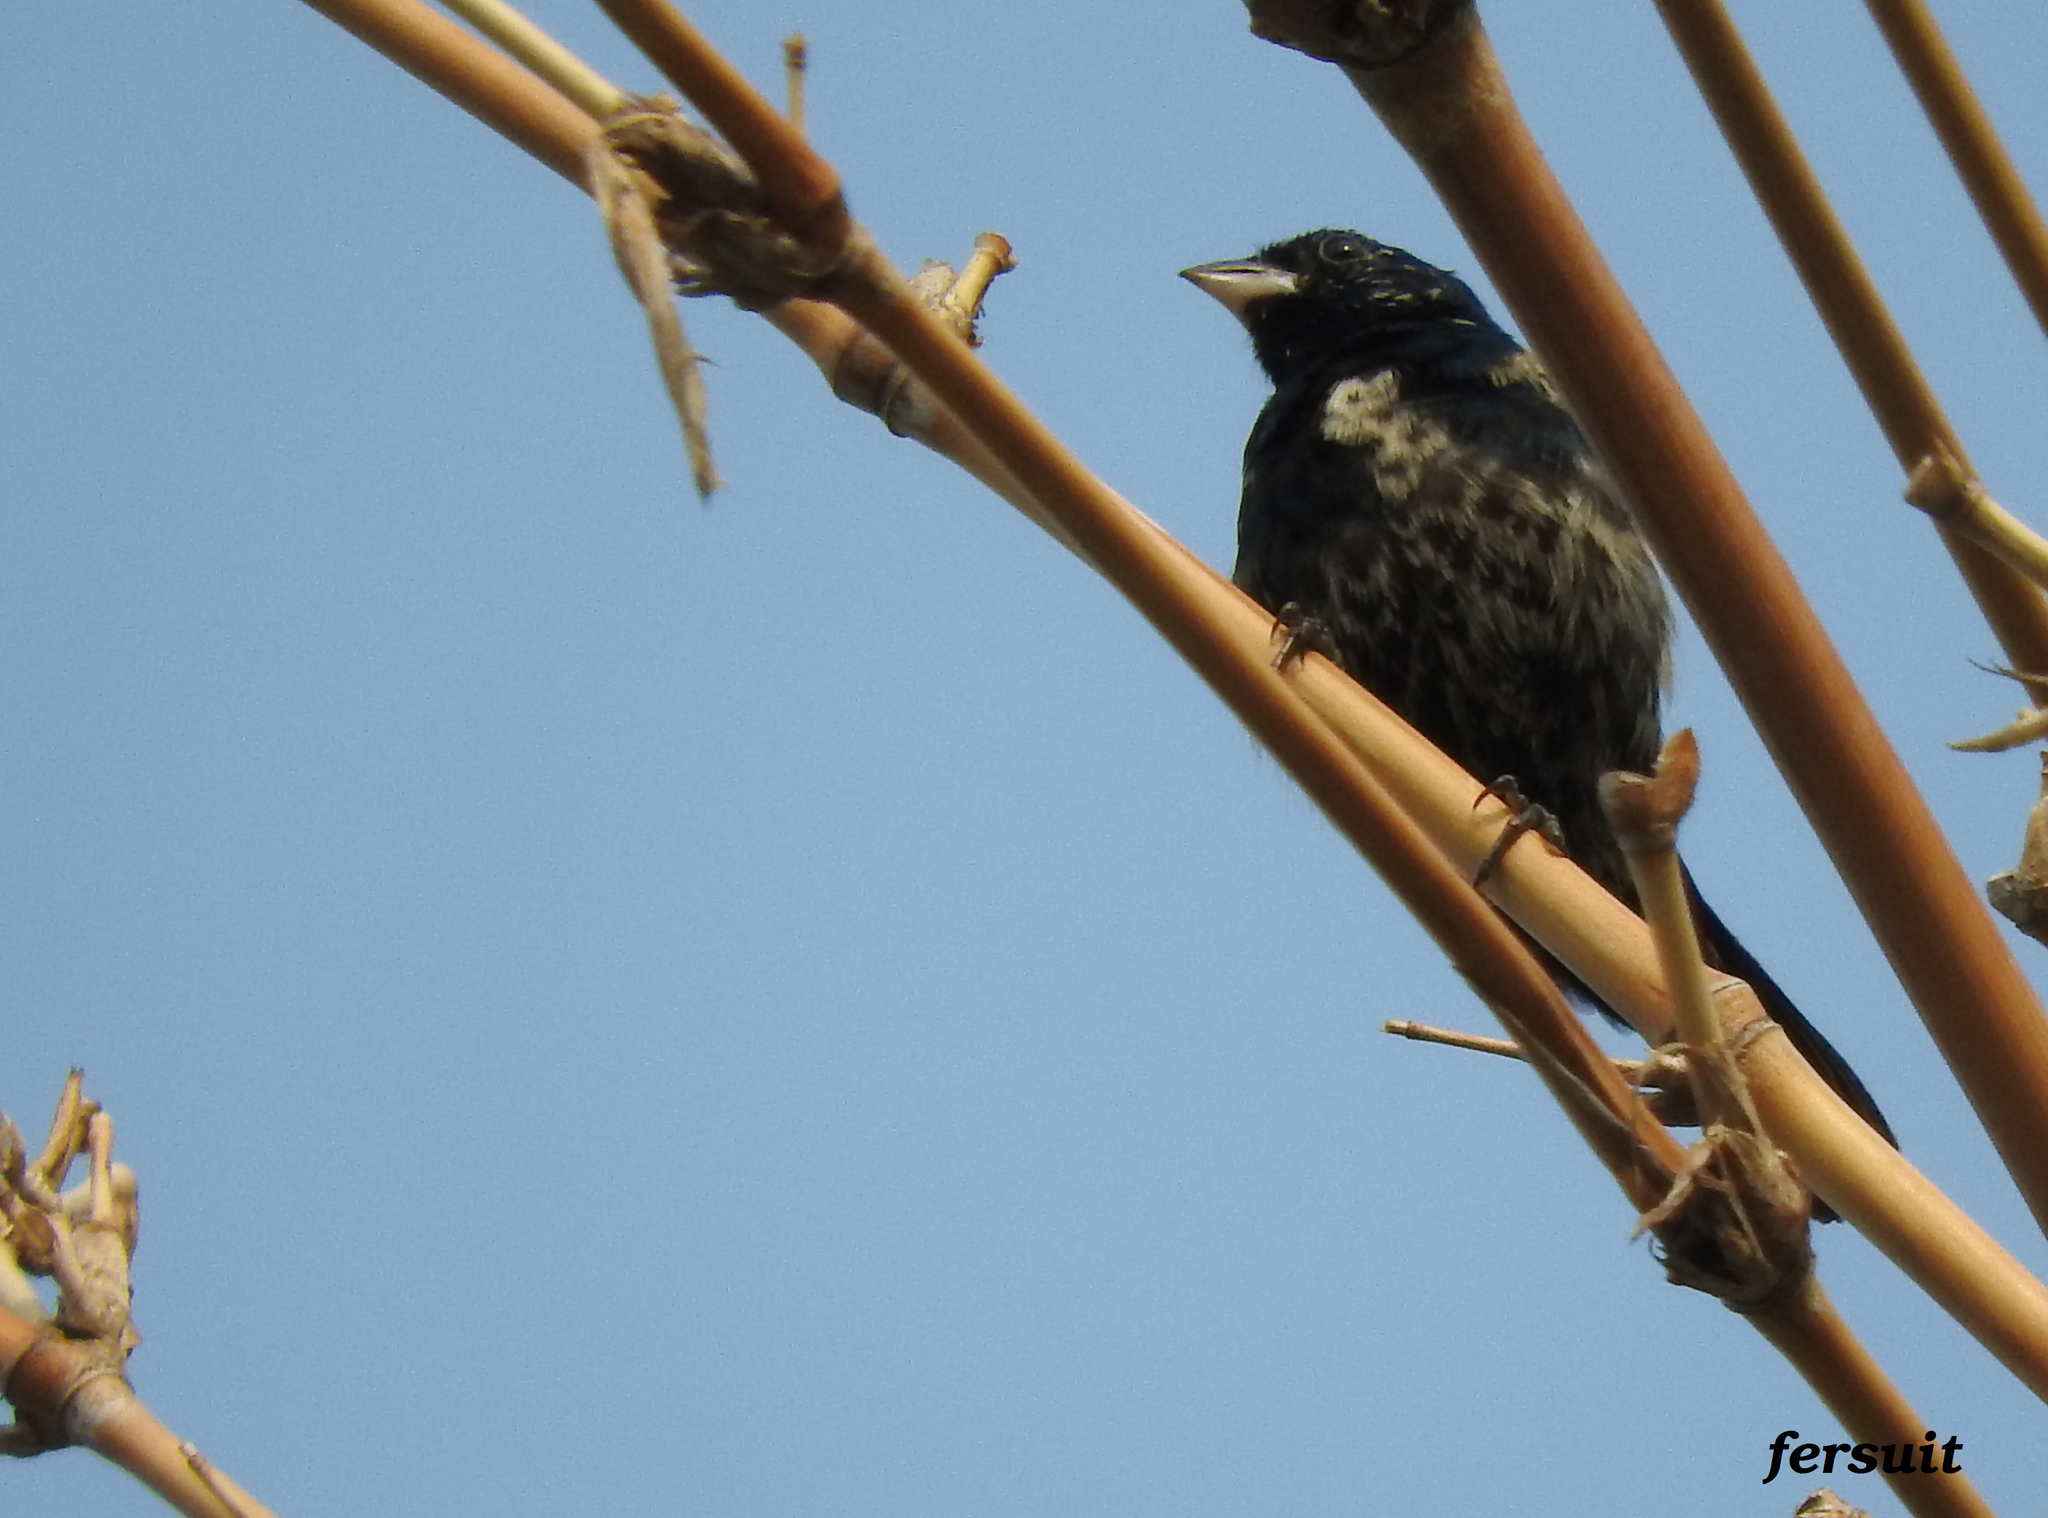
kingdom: Animalia
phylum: Chordata
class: Aves
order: Passeriformes
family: Thraupidae
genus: Volatinia
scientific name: Volatinia jacarina
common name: Blue-black grassquit
